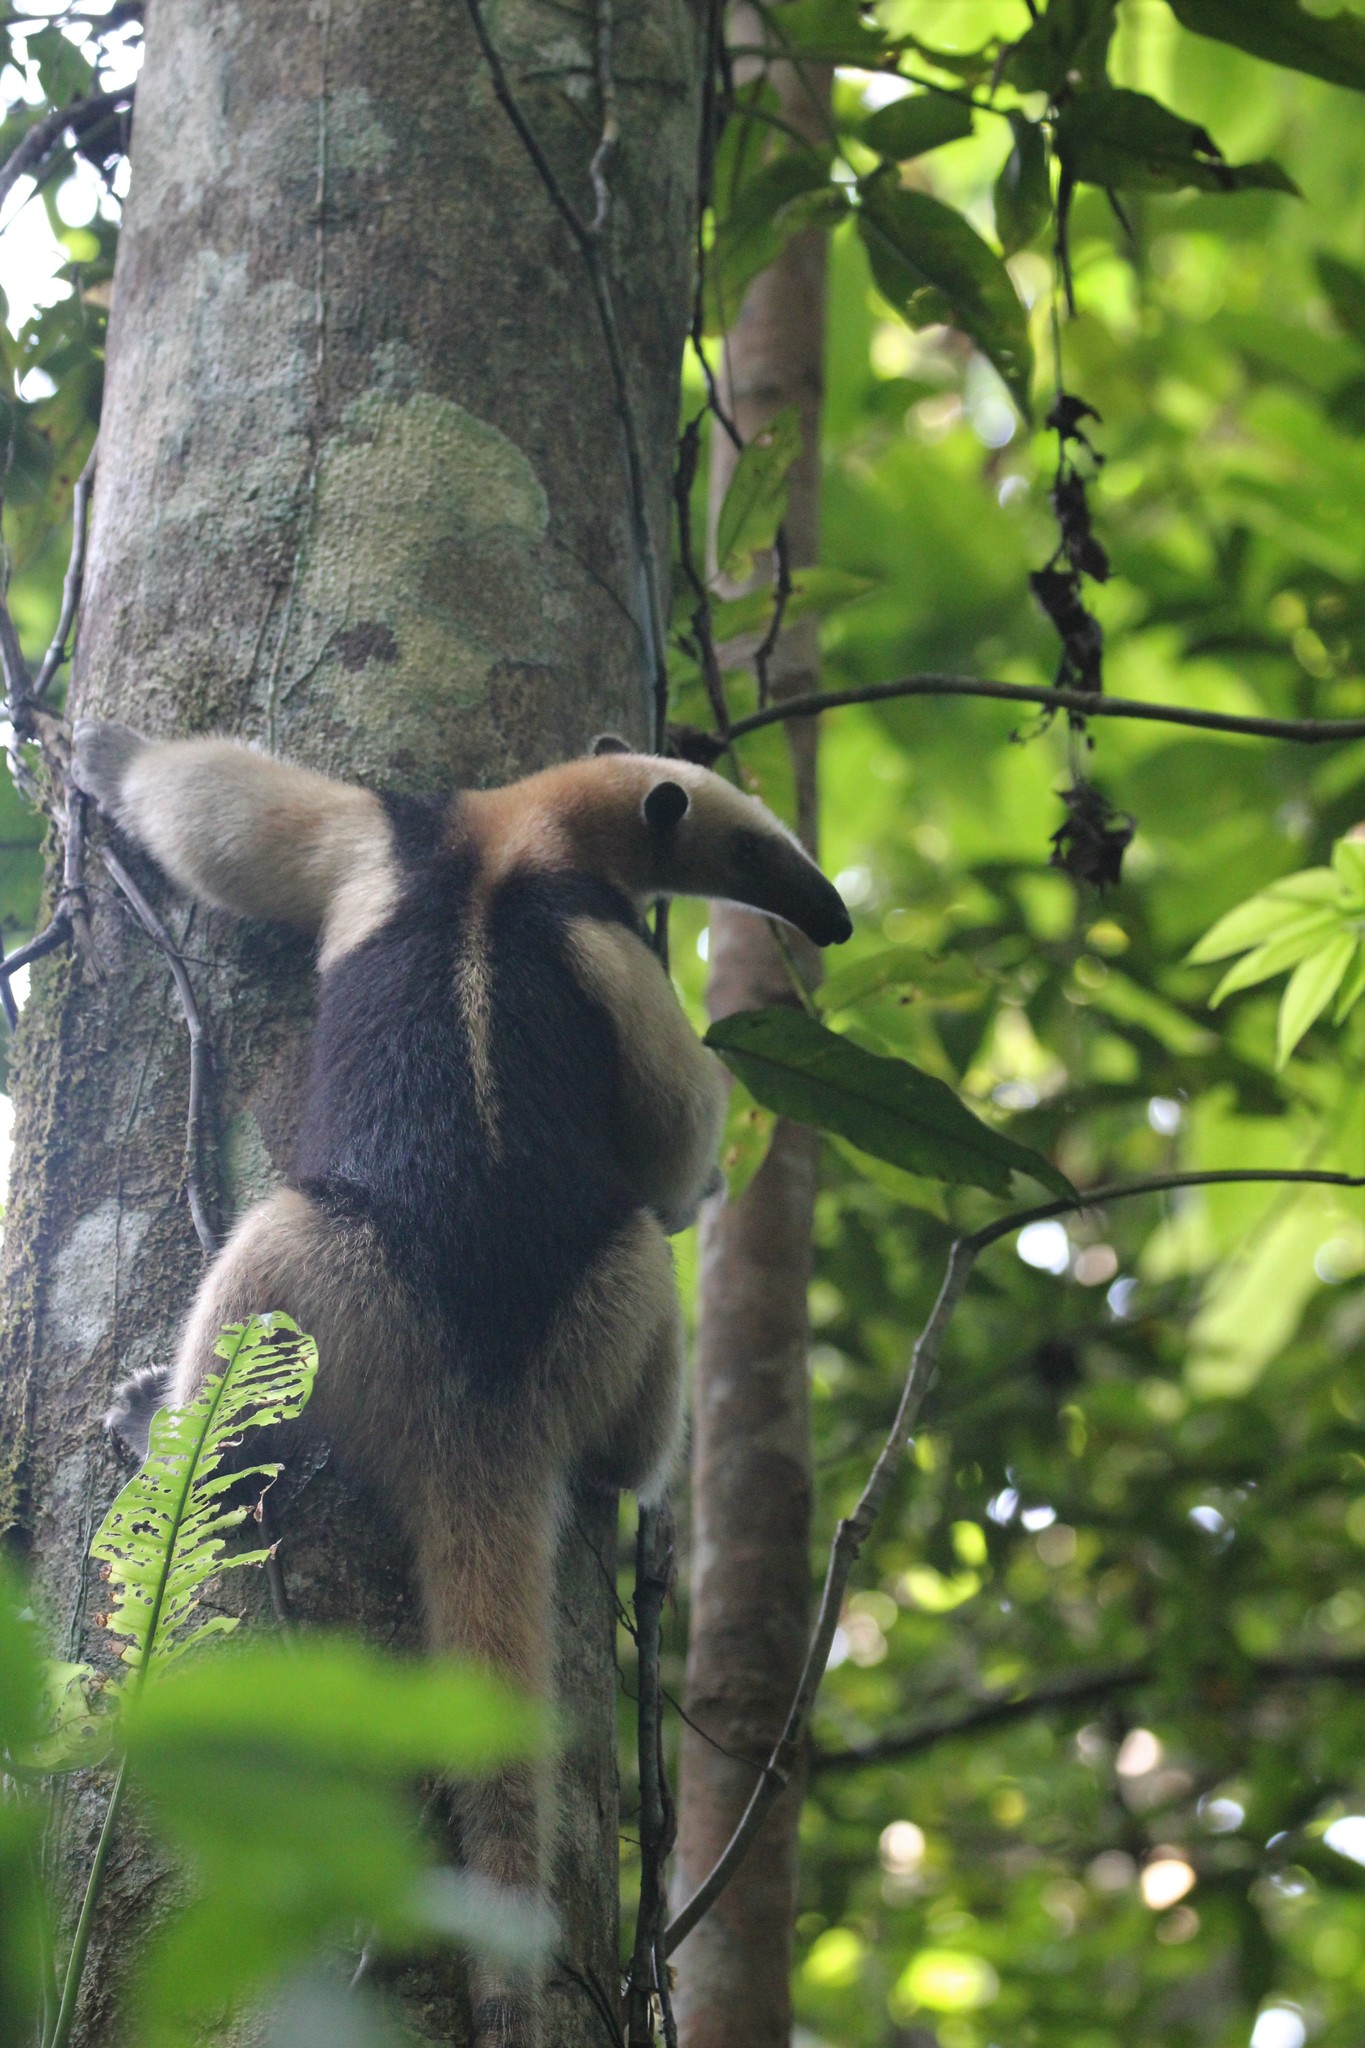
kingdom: Animalia
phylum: Chordata
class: Mammalia
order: Pilosa
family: Myrmecophagidae
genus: Tamandua
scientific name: Tamandua mexicana
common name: Northern tamandua
